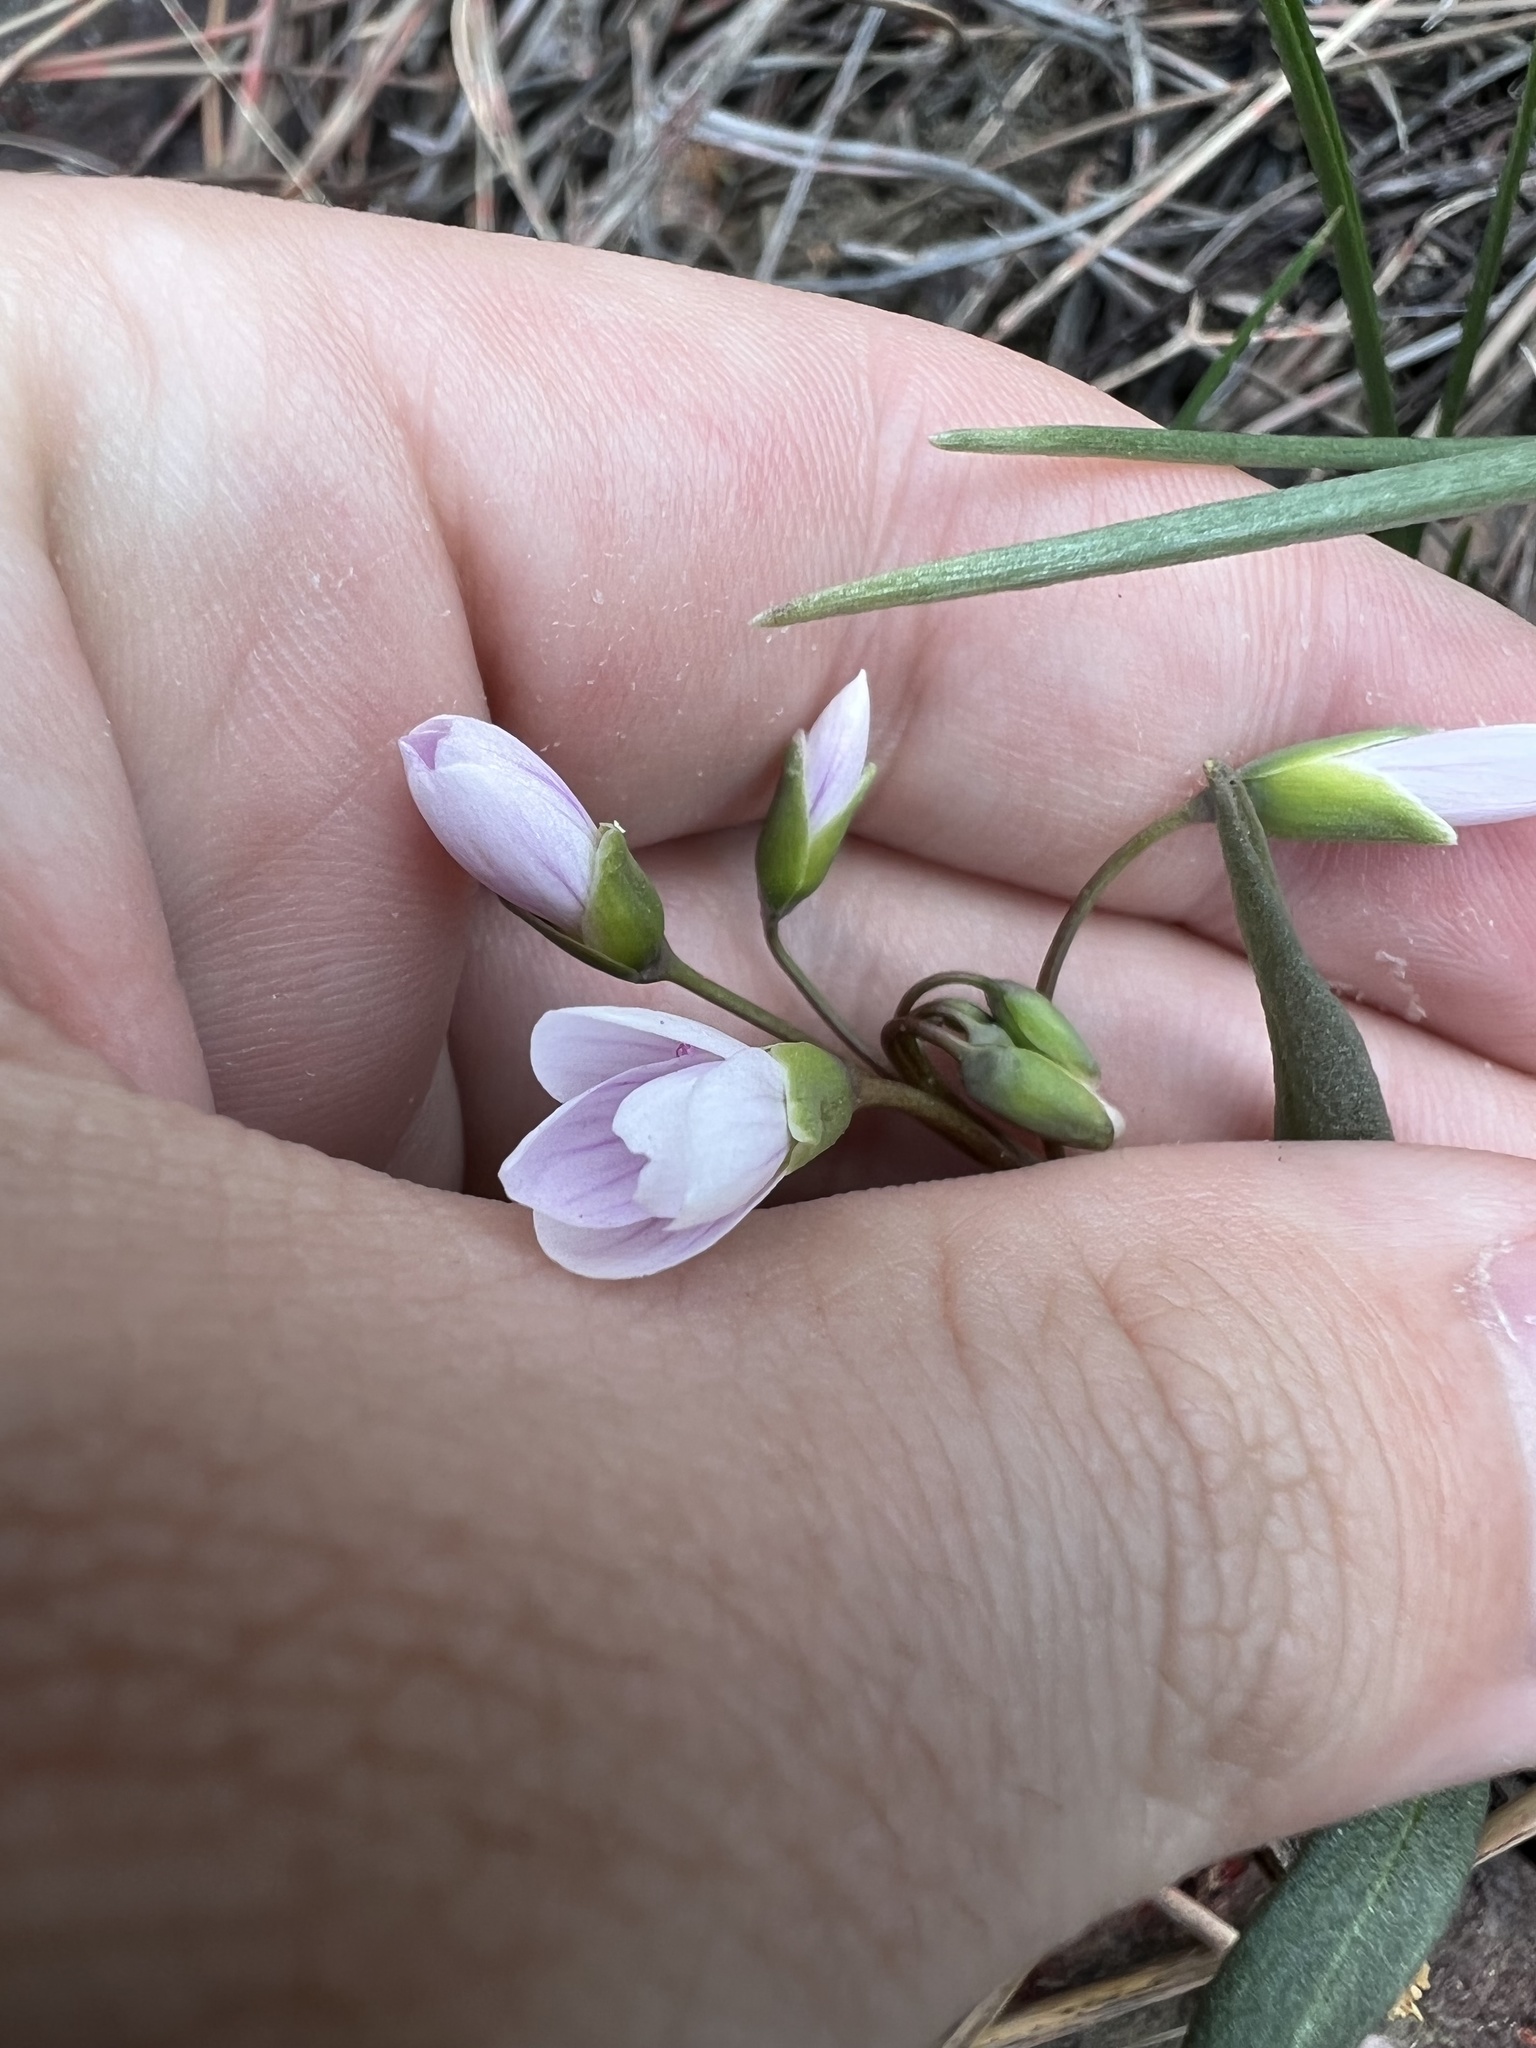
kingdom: Plantae
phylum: Tracheophyta
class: Magnoliopsida
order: Caryophyllales
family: Montiaceae
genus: Claytonia
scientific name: Claytonia rosea
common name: Rocky mountain spring-beauty
